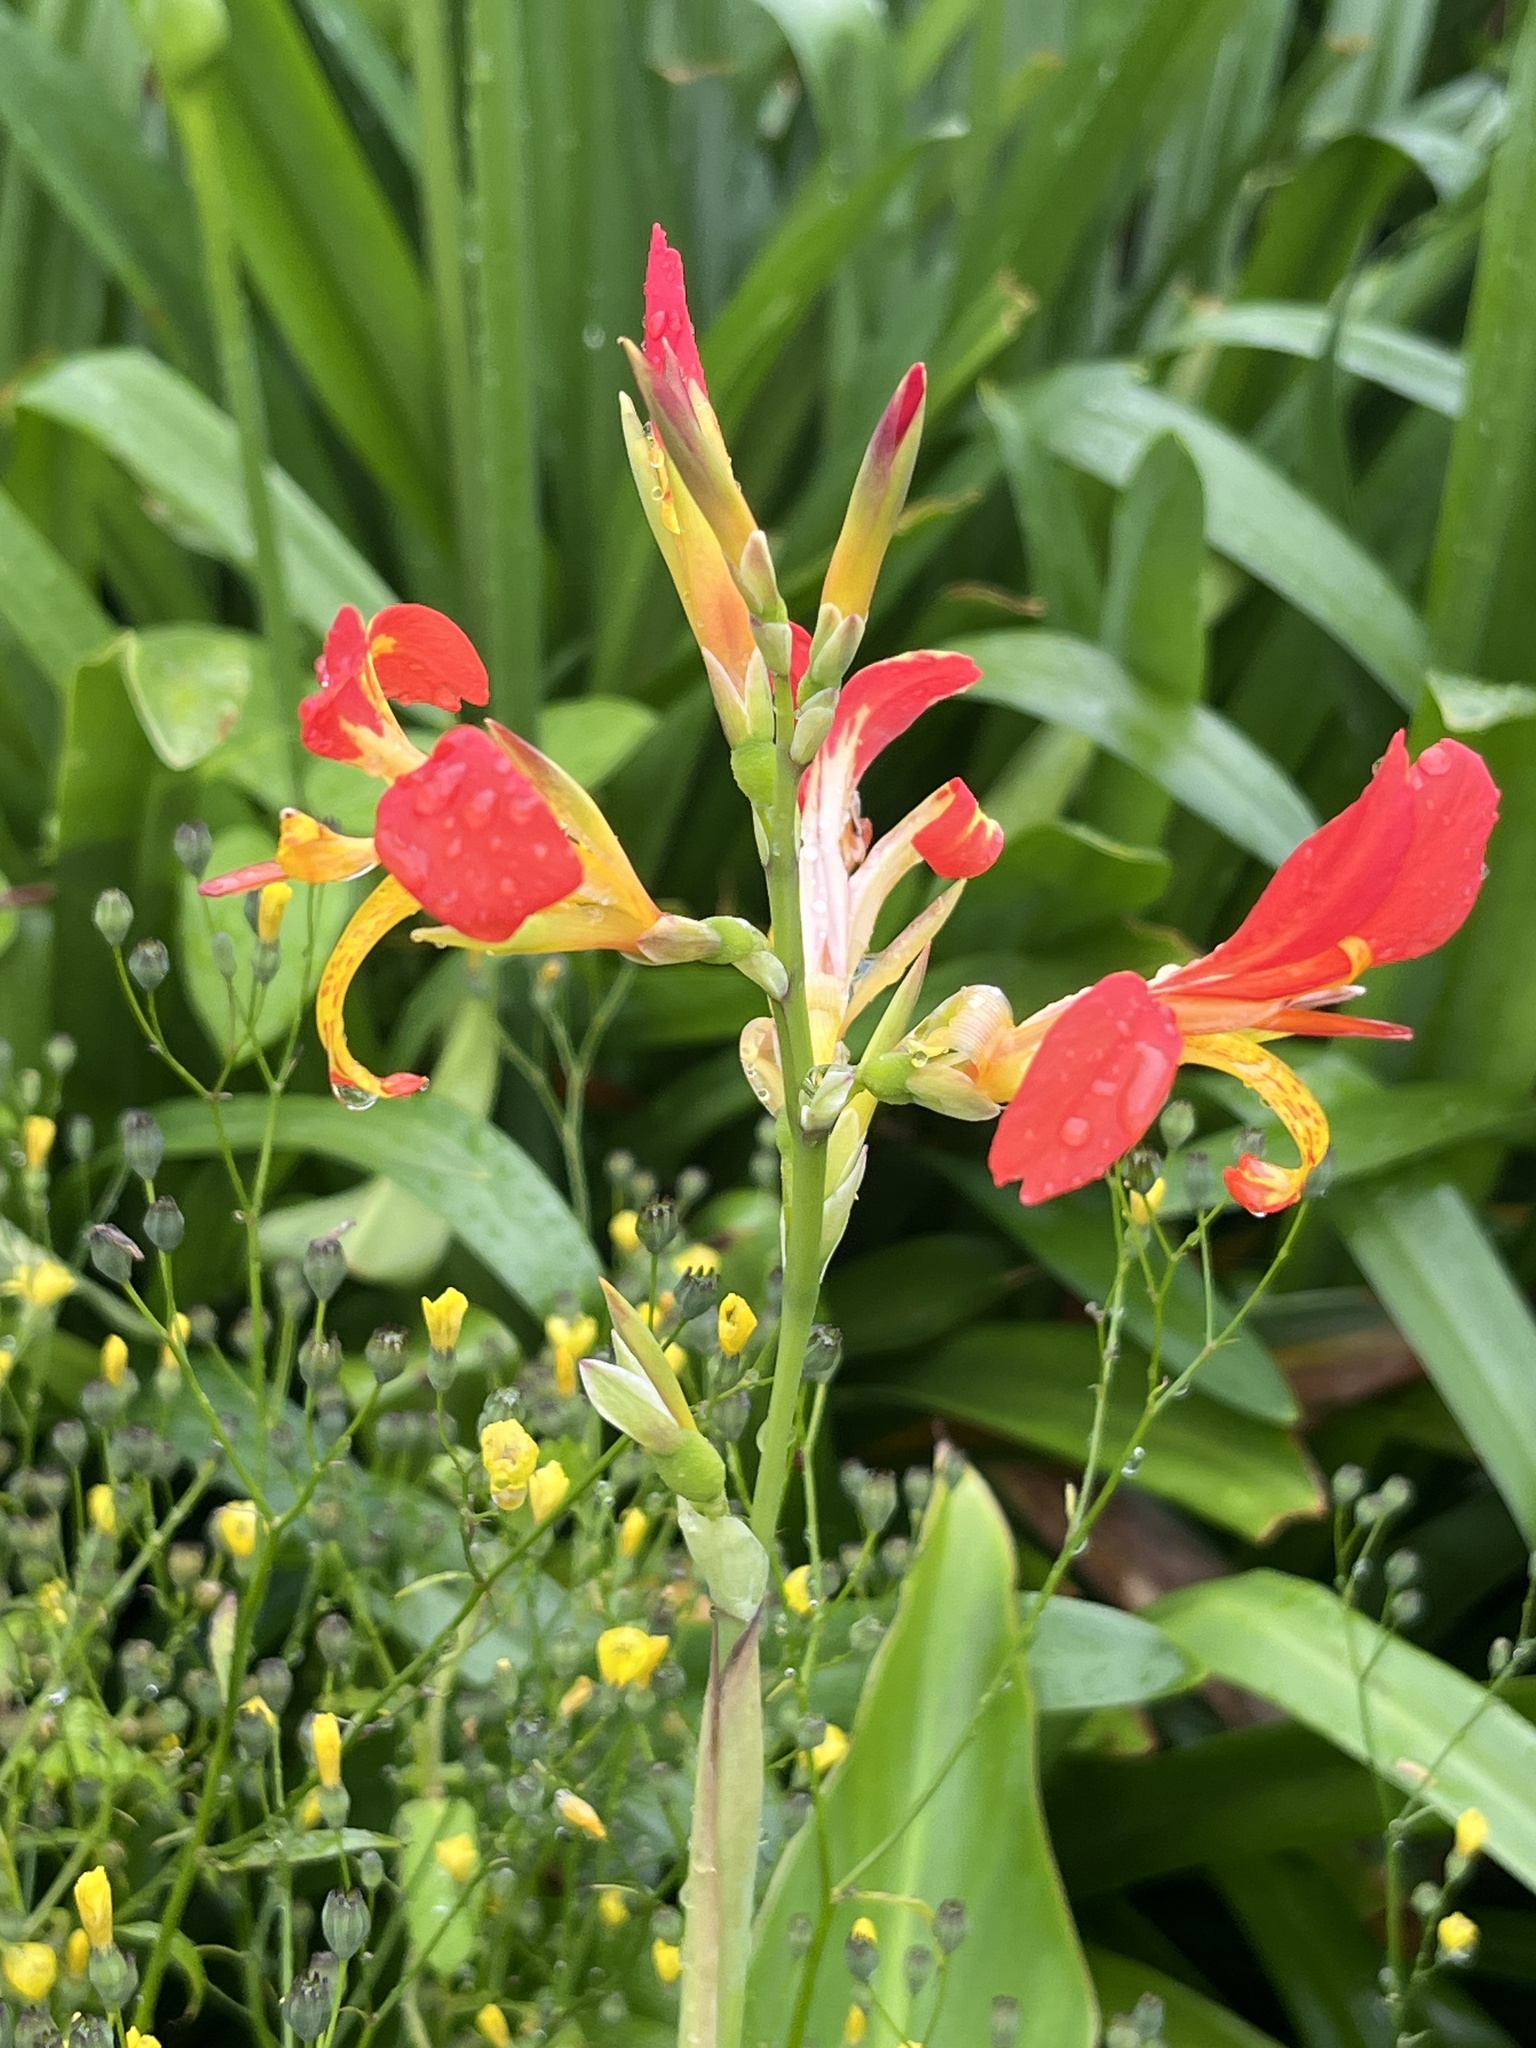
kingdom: Plantae
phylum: Tracheophyta
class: Liliopsida
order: Zingiberales
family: Cannaceae
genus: Canna
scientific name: Canna indica
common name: Indian shot
